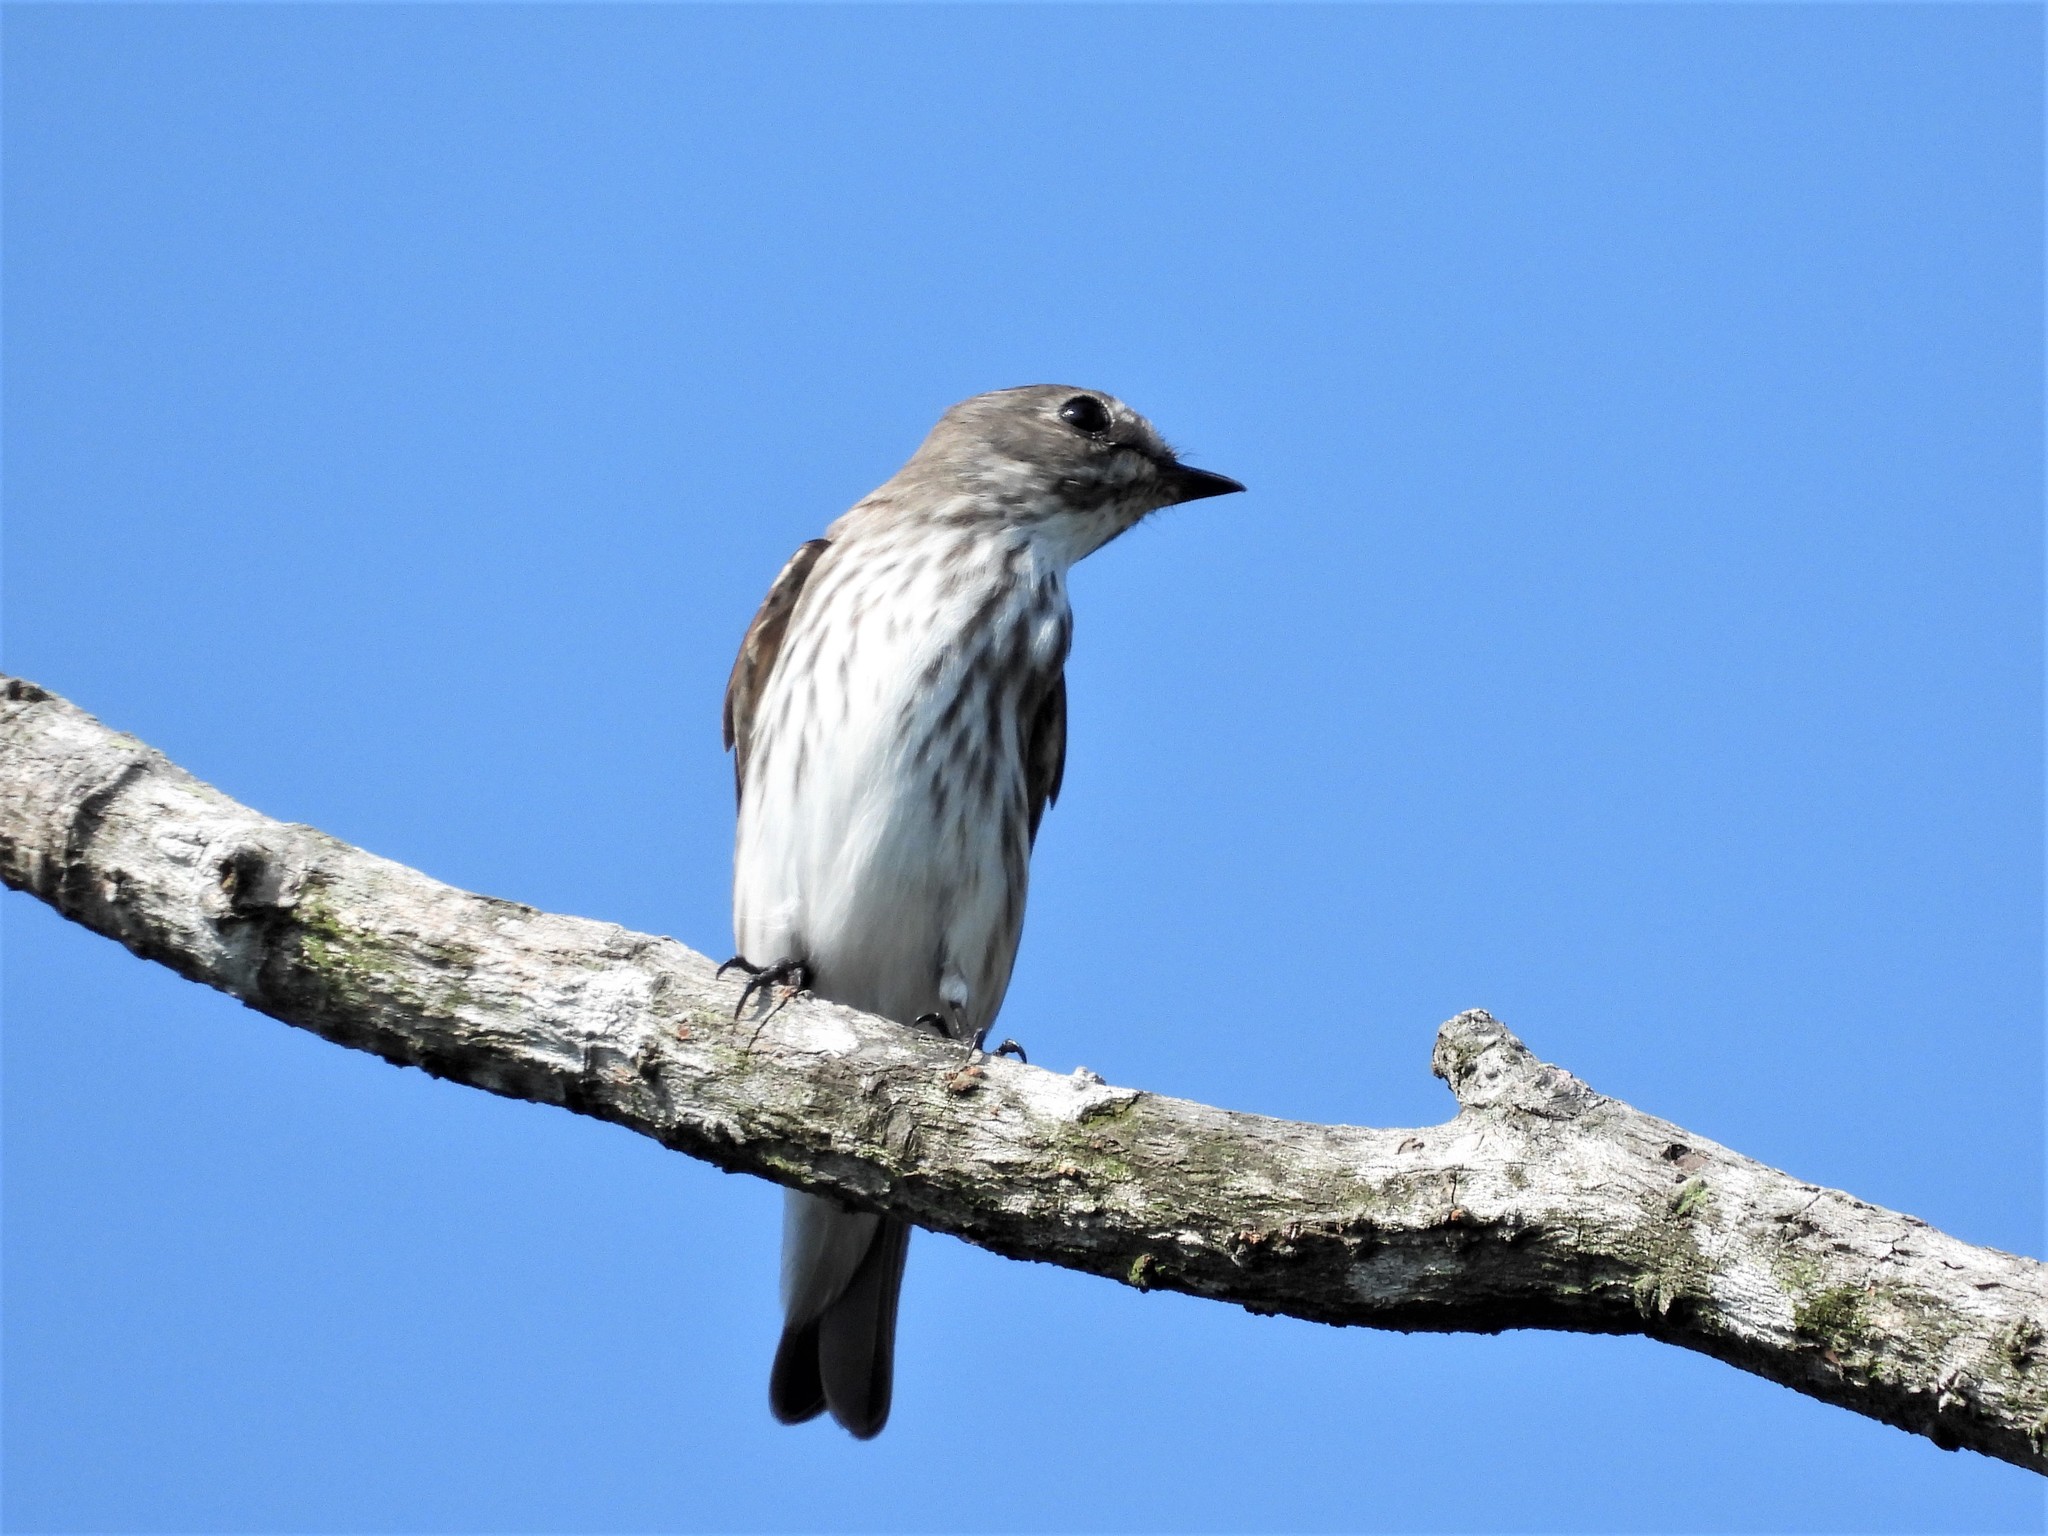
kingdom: Animalia
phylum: Chordata
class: Aves
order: Passeriformes
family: Muscicapidae
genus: Muscicapa
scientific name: Muscicapa griseisticta
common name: Gray-streaked flycatcher
